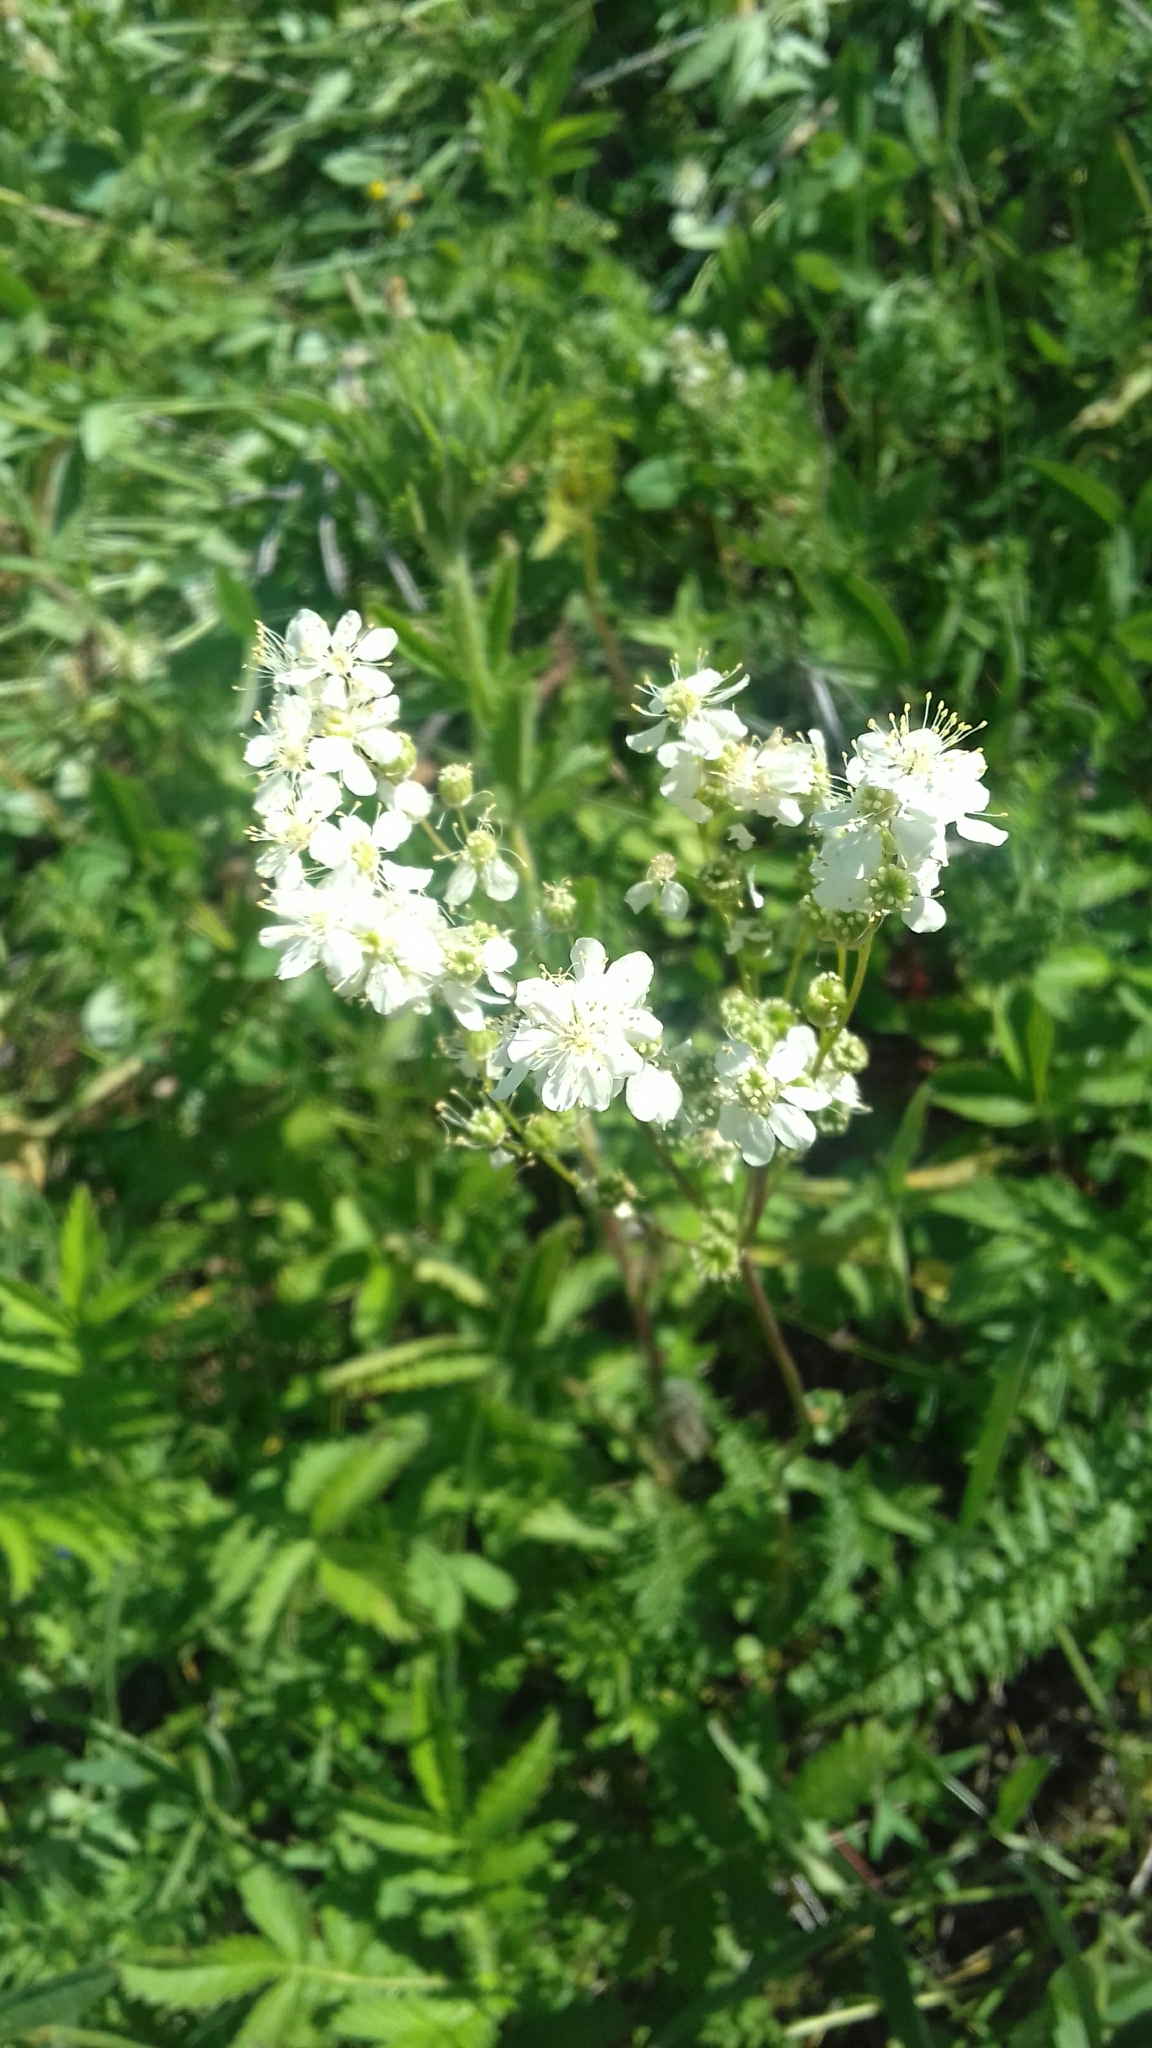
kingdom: Plantae
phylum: Tracheophyta
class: Magnoliopsida
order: Rosales
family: Rosaceae
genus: Filipendula
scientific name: Filipendula vulgaris
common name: Dropwort
